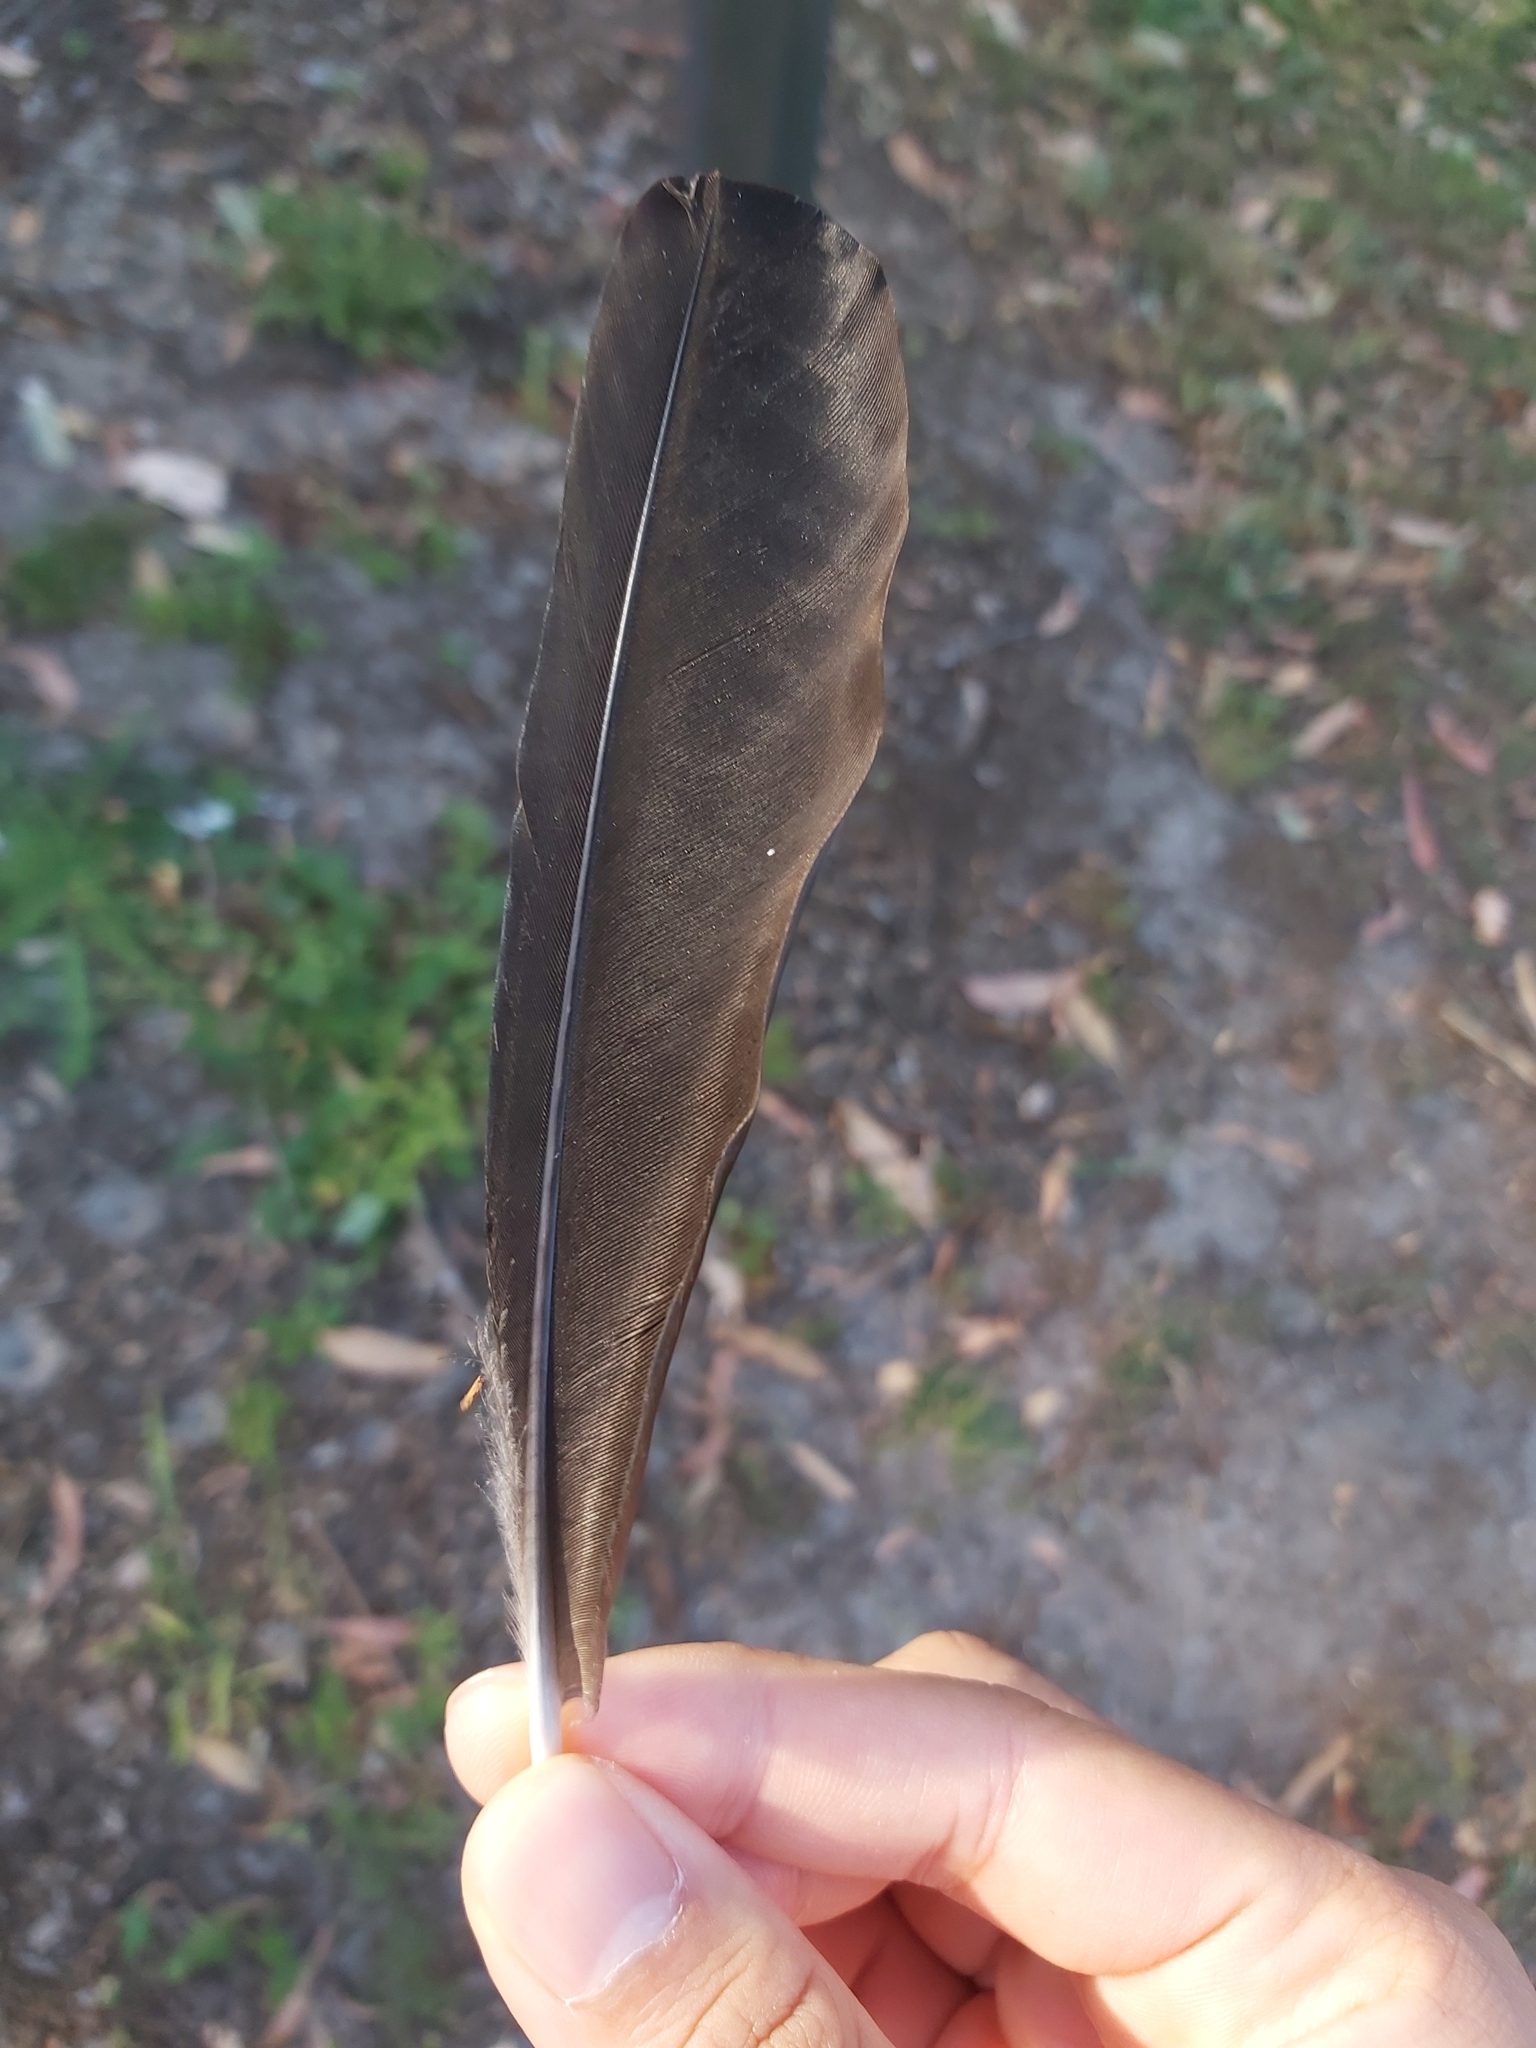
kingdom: Animalia
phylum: Chordata
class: Aves
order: Passeriformes
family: Cracticidae
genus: Gymnorhina
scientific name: Gymnorhina tibicen
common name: Australian magpie
